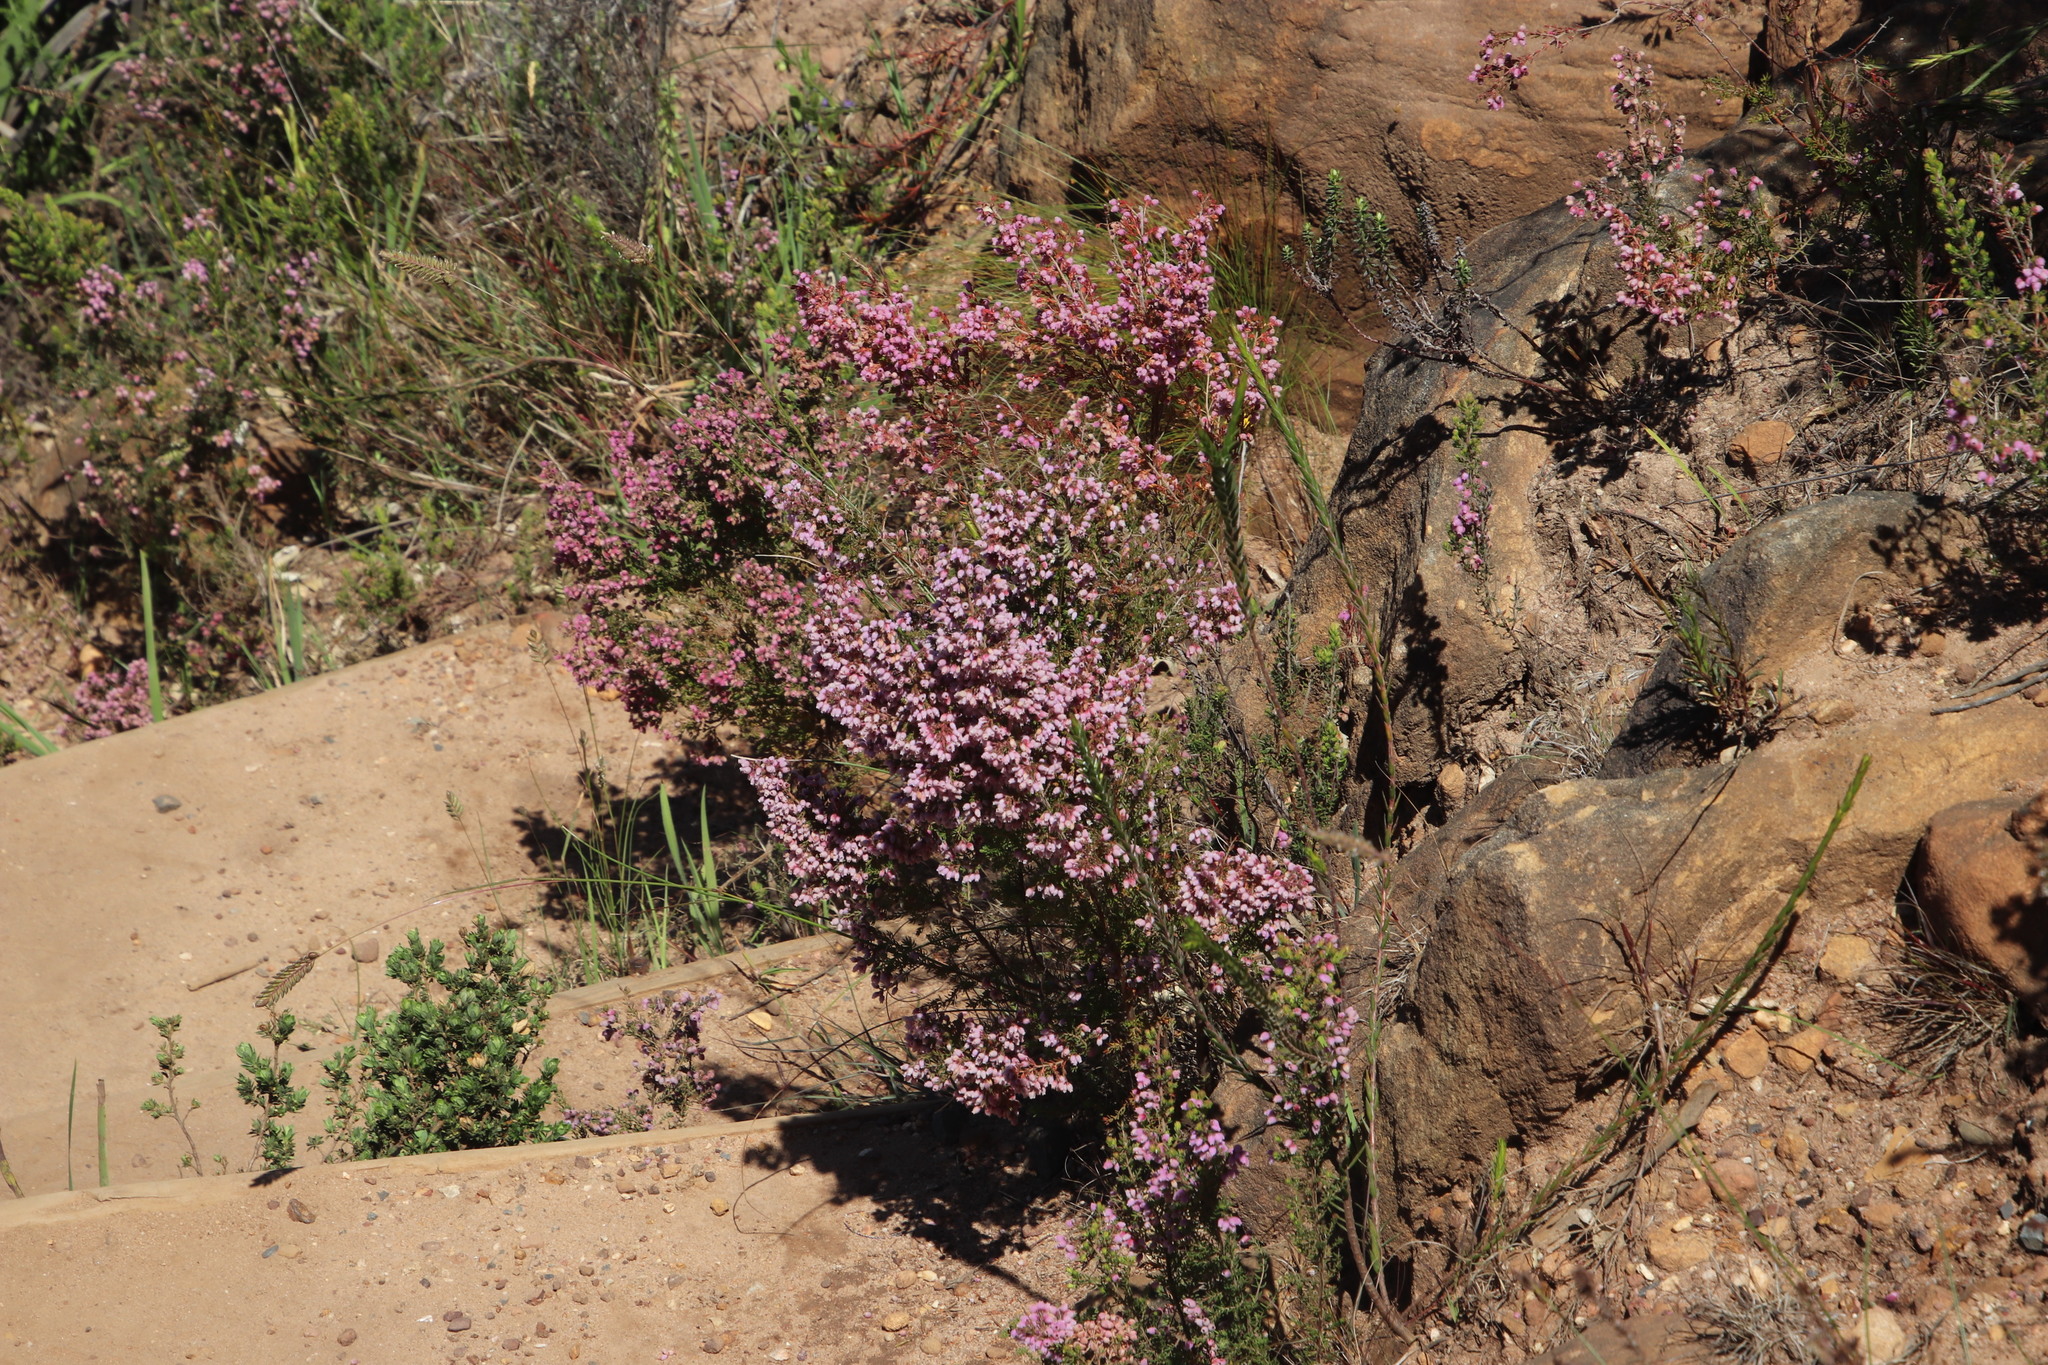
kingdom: Plantae
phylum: Tracheophyta
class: Magnoliopsida
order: Ericales
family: Ericaceae
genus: Erica
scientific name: Erica hirtiflora
